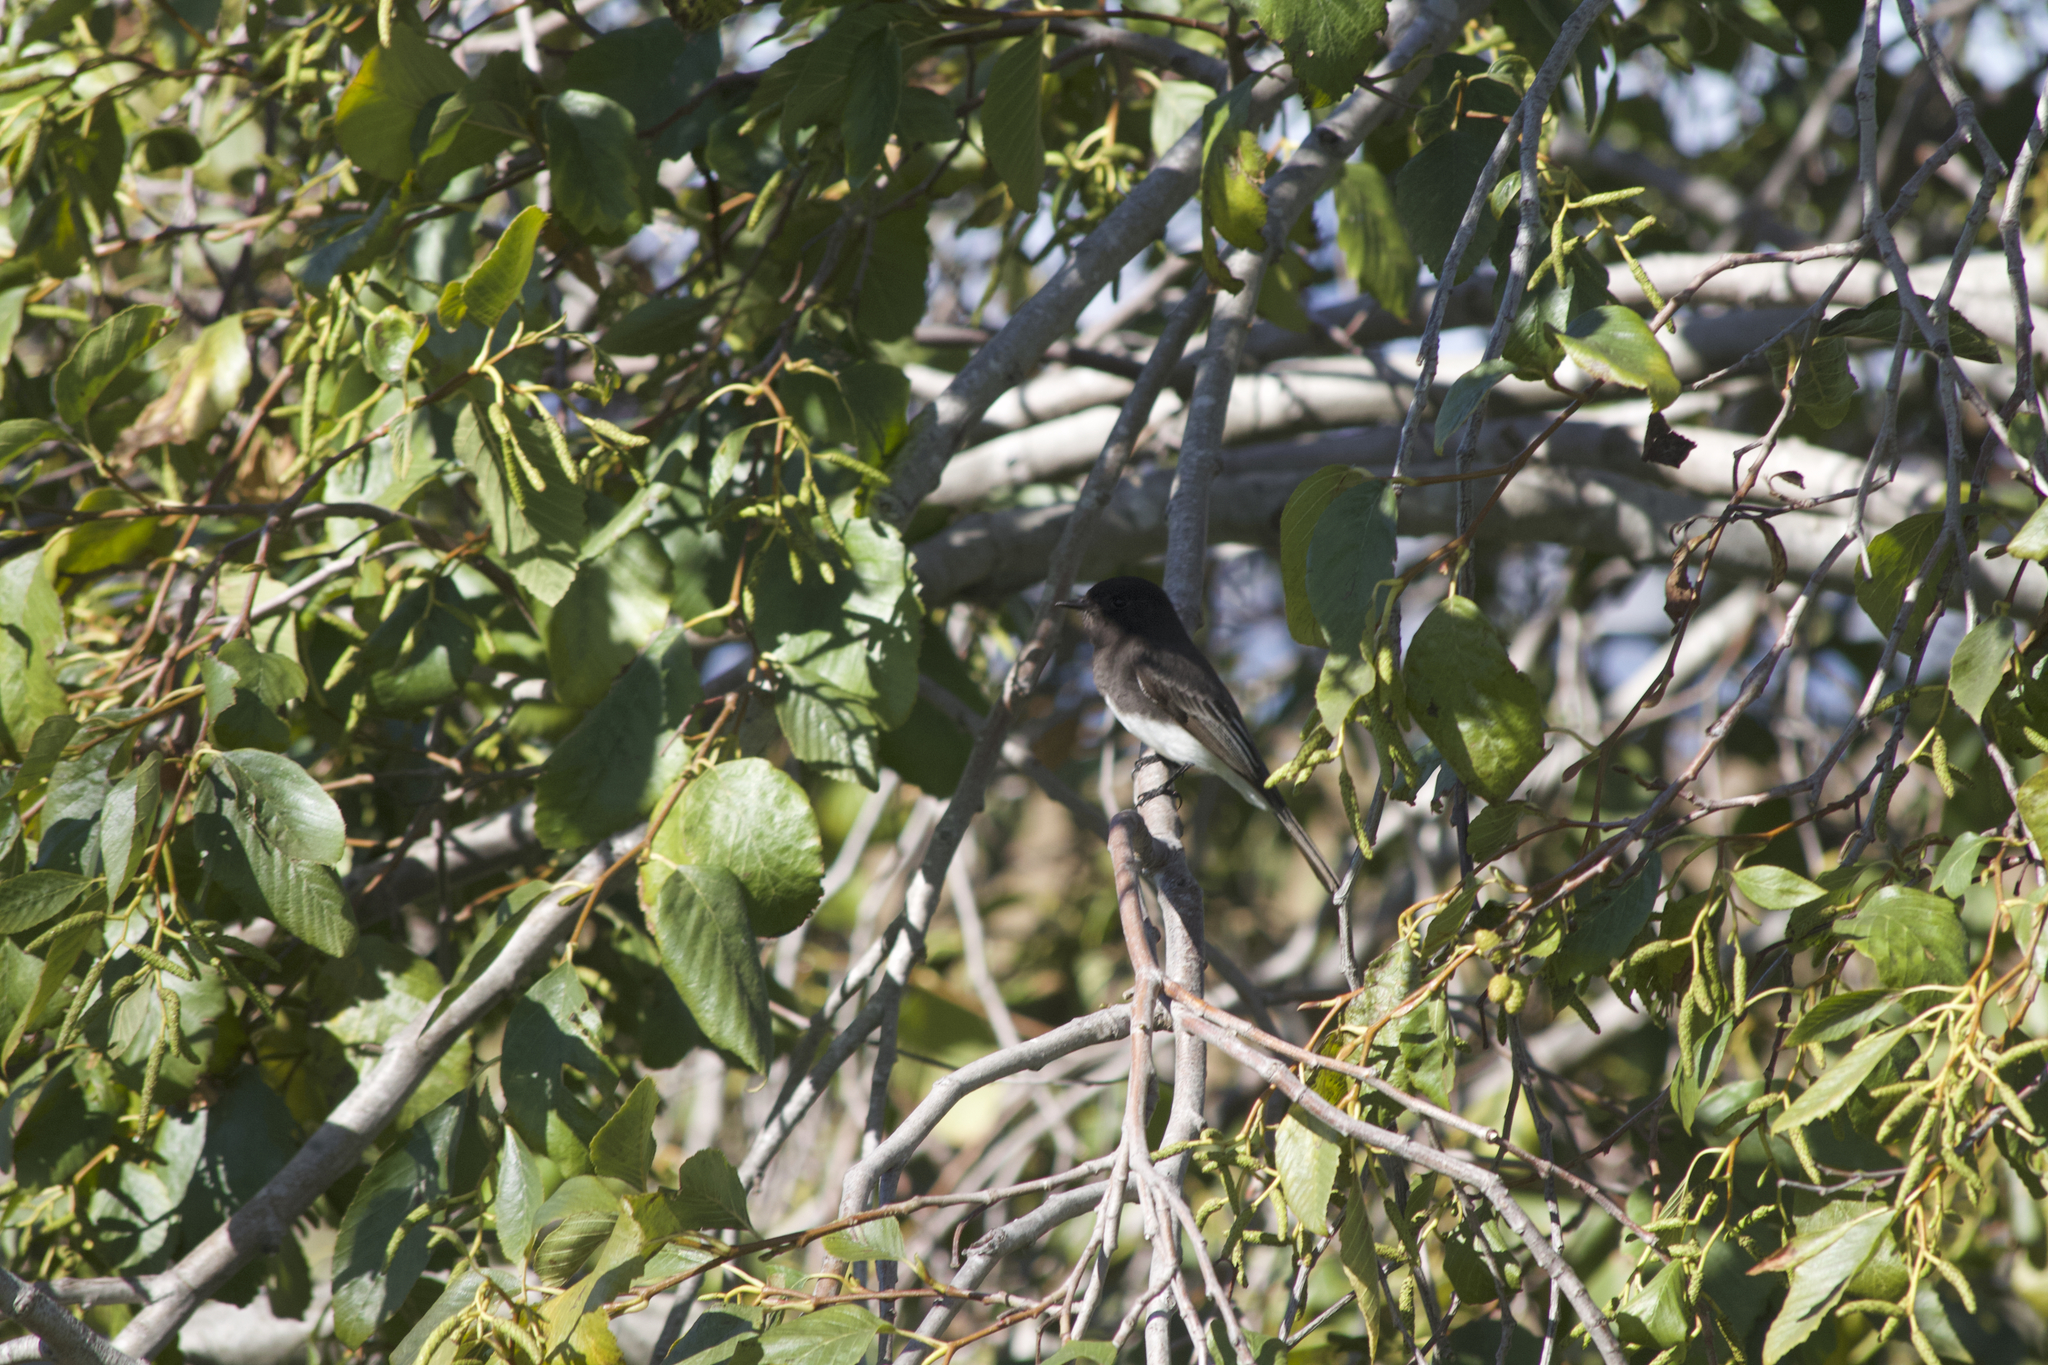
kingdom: Animalia
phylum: Chordata
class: Aves
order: Passeriformes
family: Tyrannidae
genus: Sayornis
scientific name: Sayornis nigricans
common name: Black phoebe
